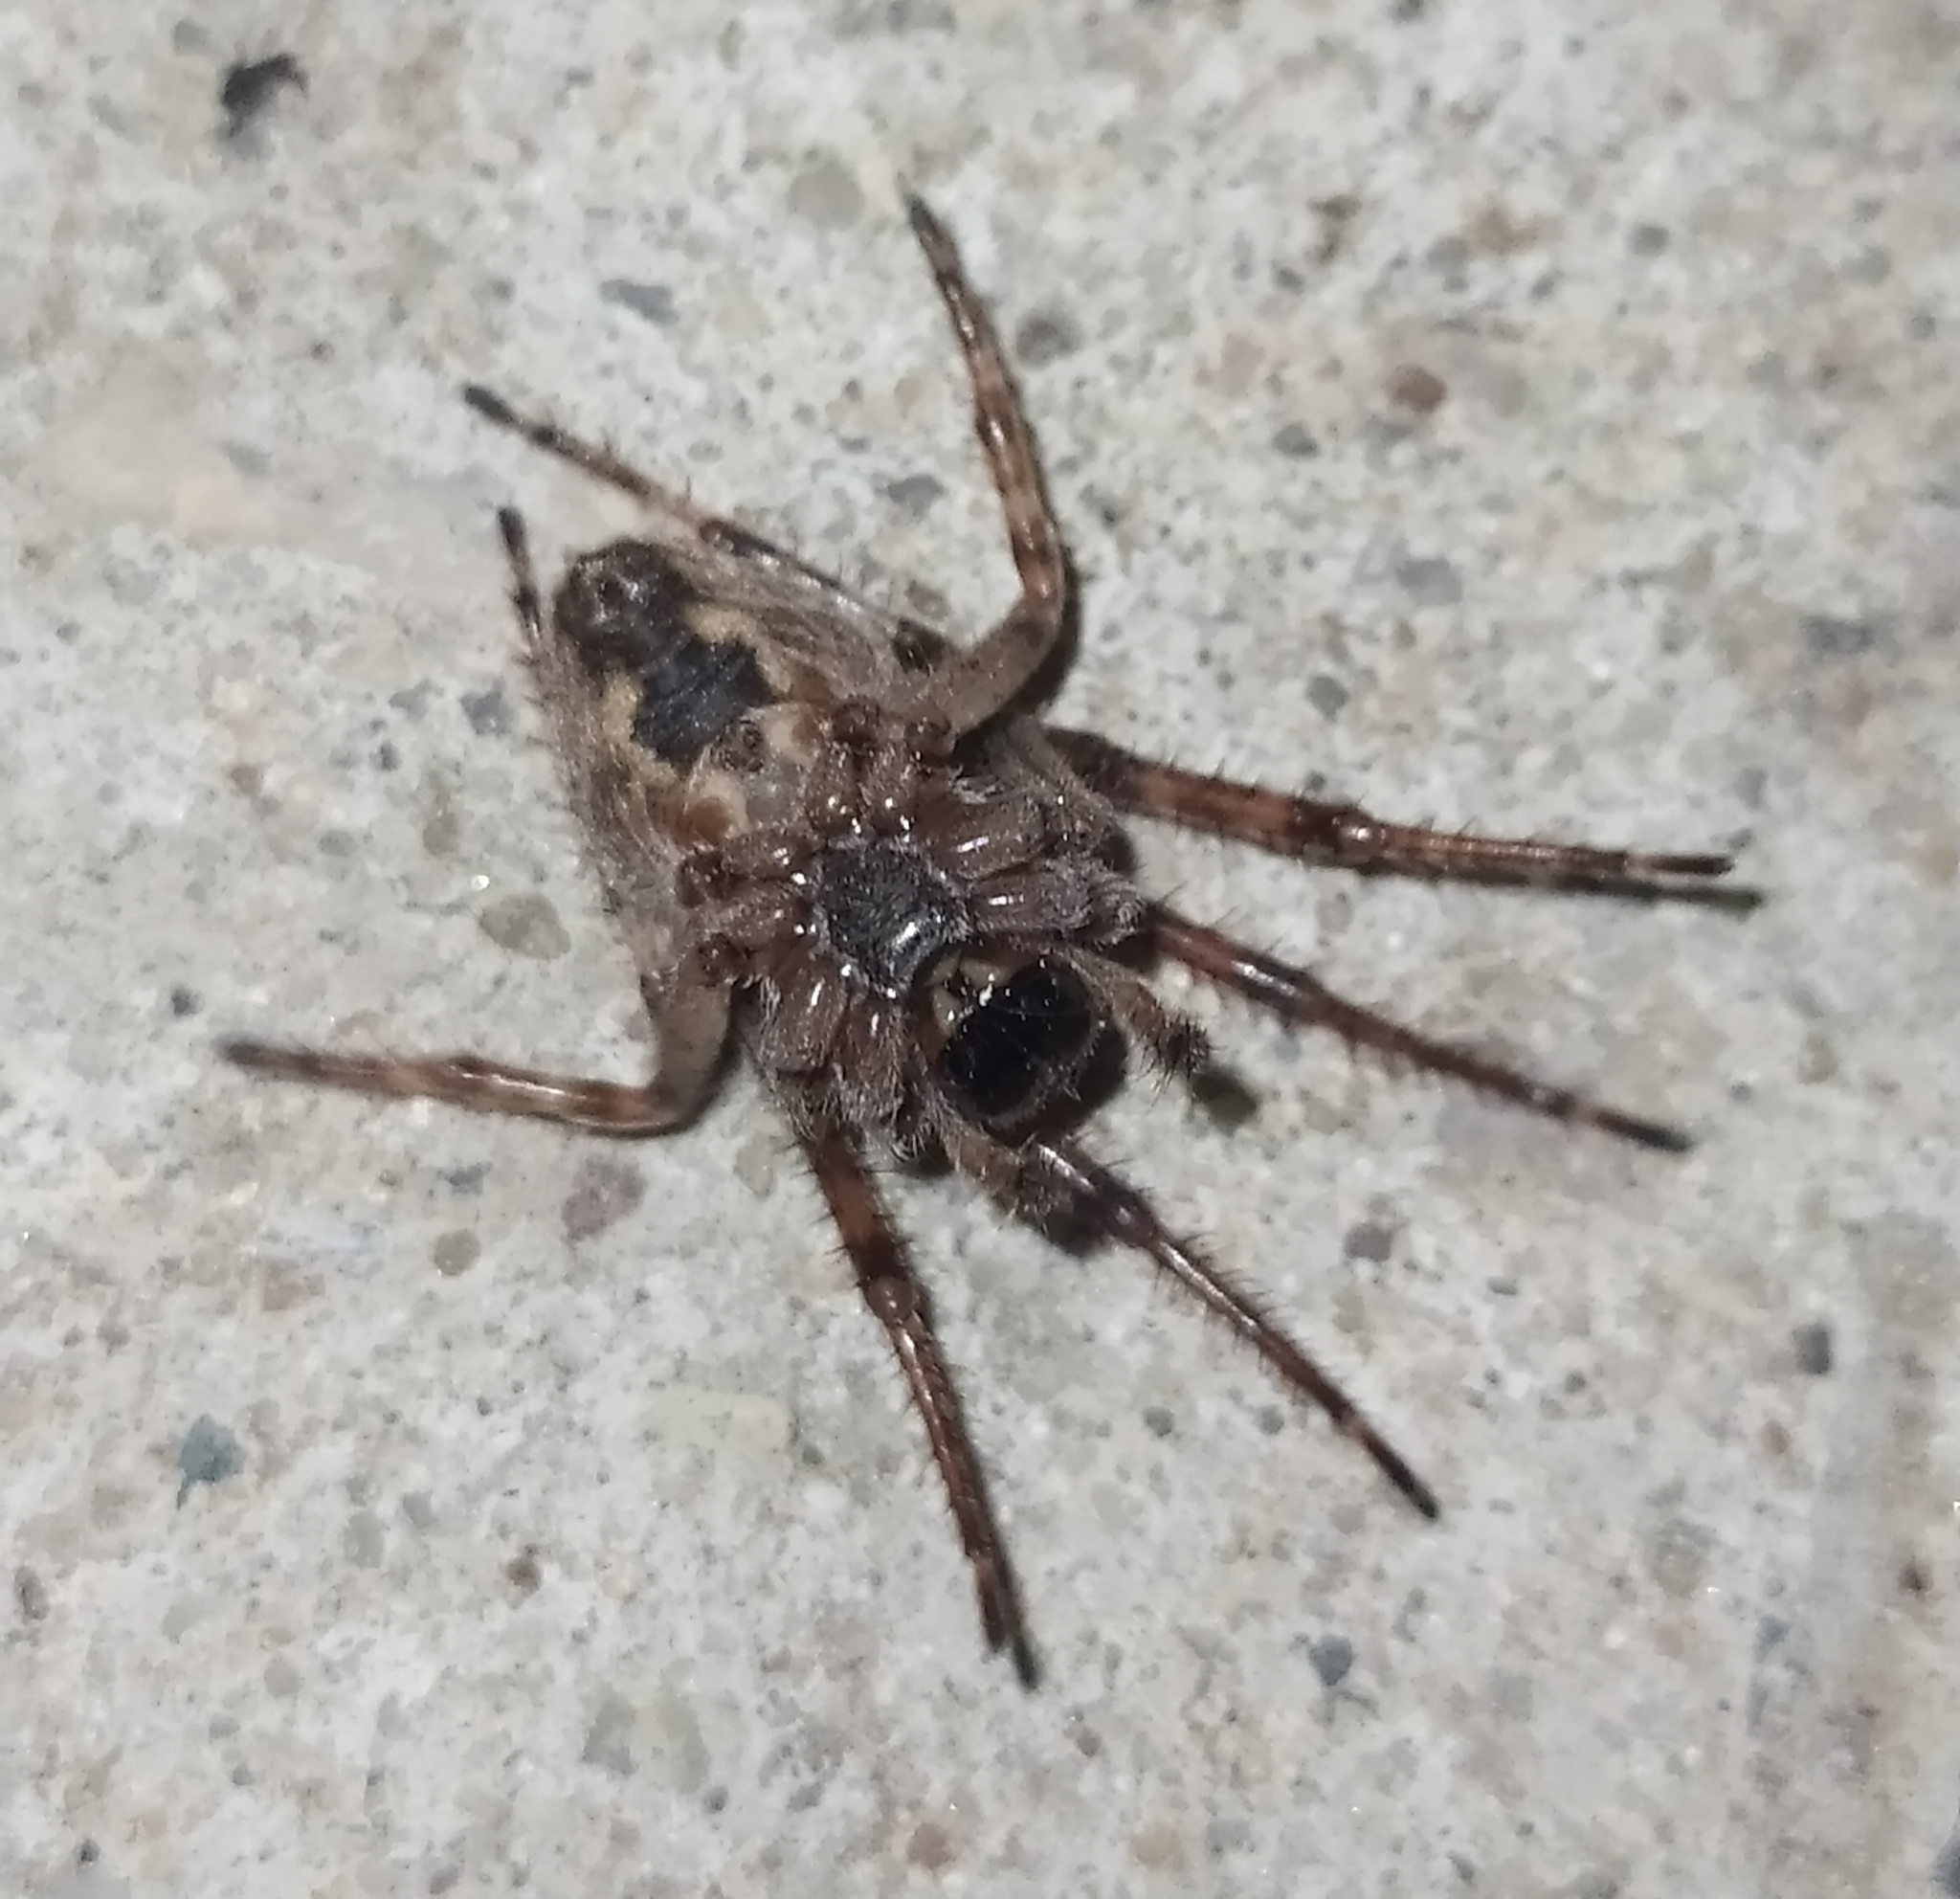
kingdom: Animalia
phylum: Arthropoda
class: Arachnida
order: Araneae
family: Araneidae
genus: Larinioides
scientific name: Larinioides ixobolus
